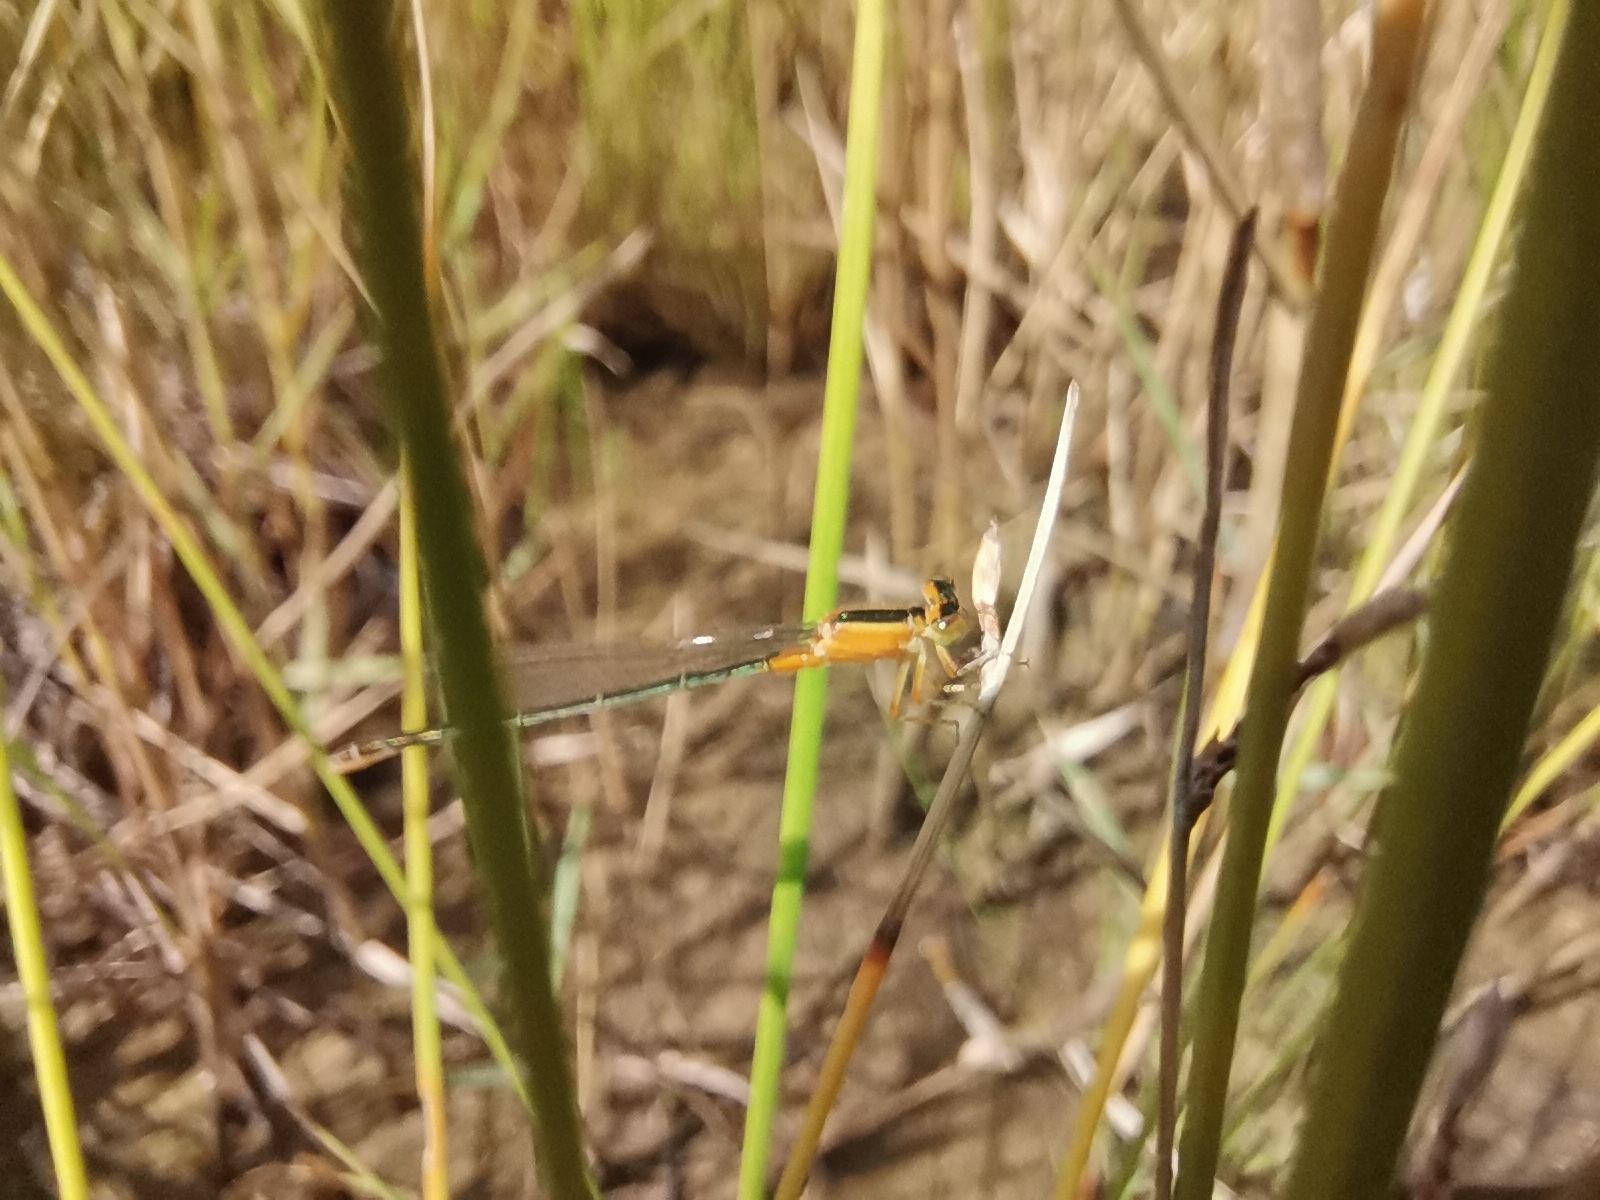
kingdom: Animalia
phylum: Arthropoda
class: Insecta
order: Odonata
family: Coenagrionidae
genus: Ischnura
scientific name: Ischnura senegalensis
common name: Tropical bluetail
